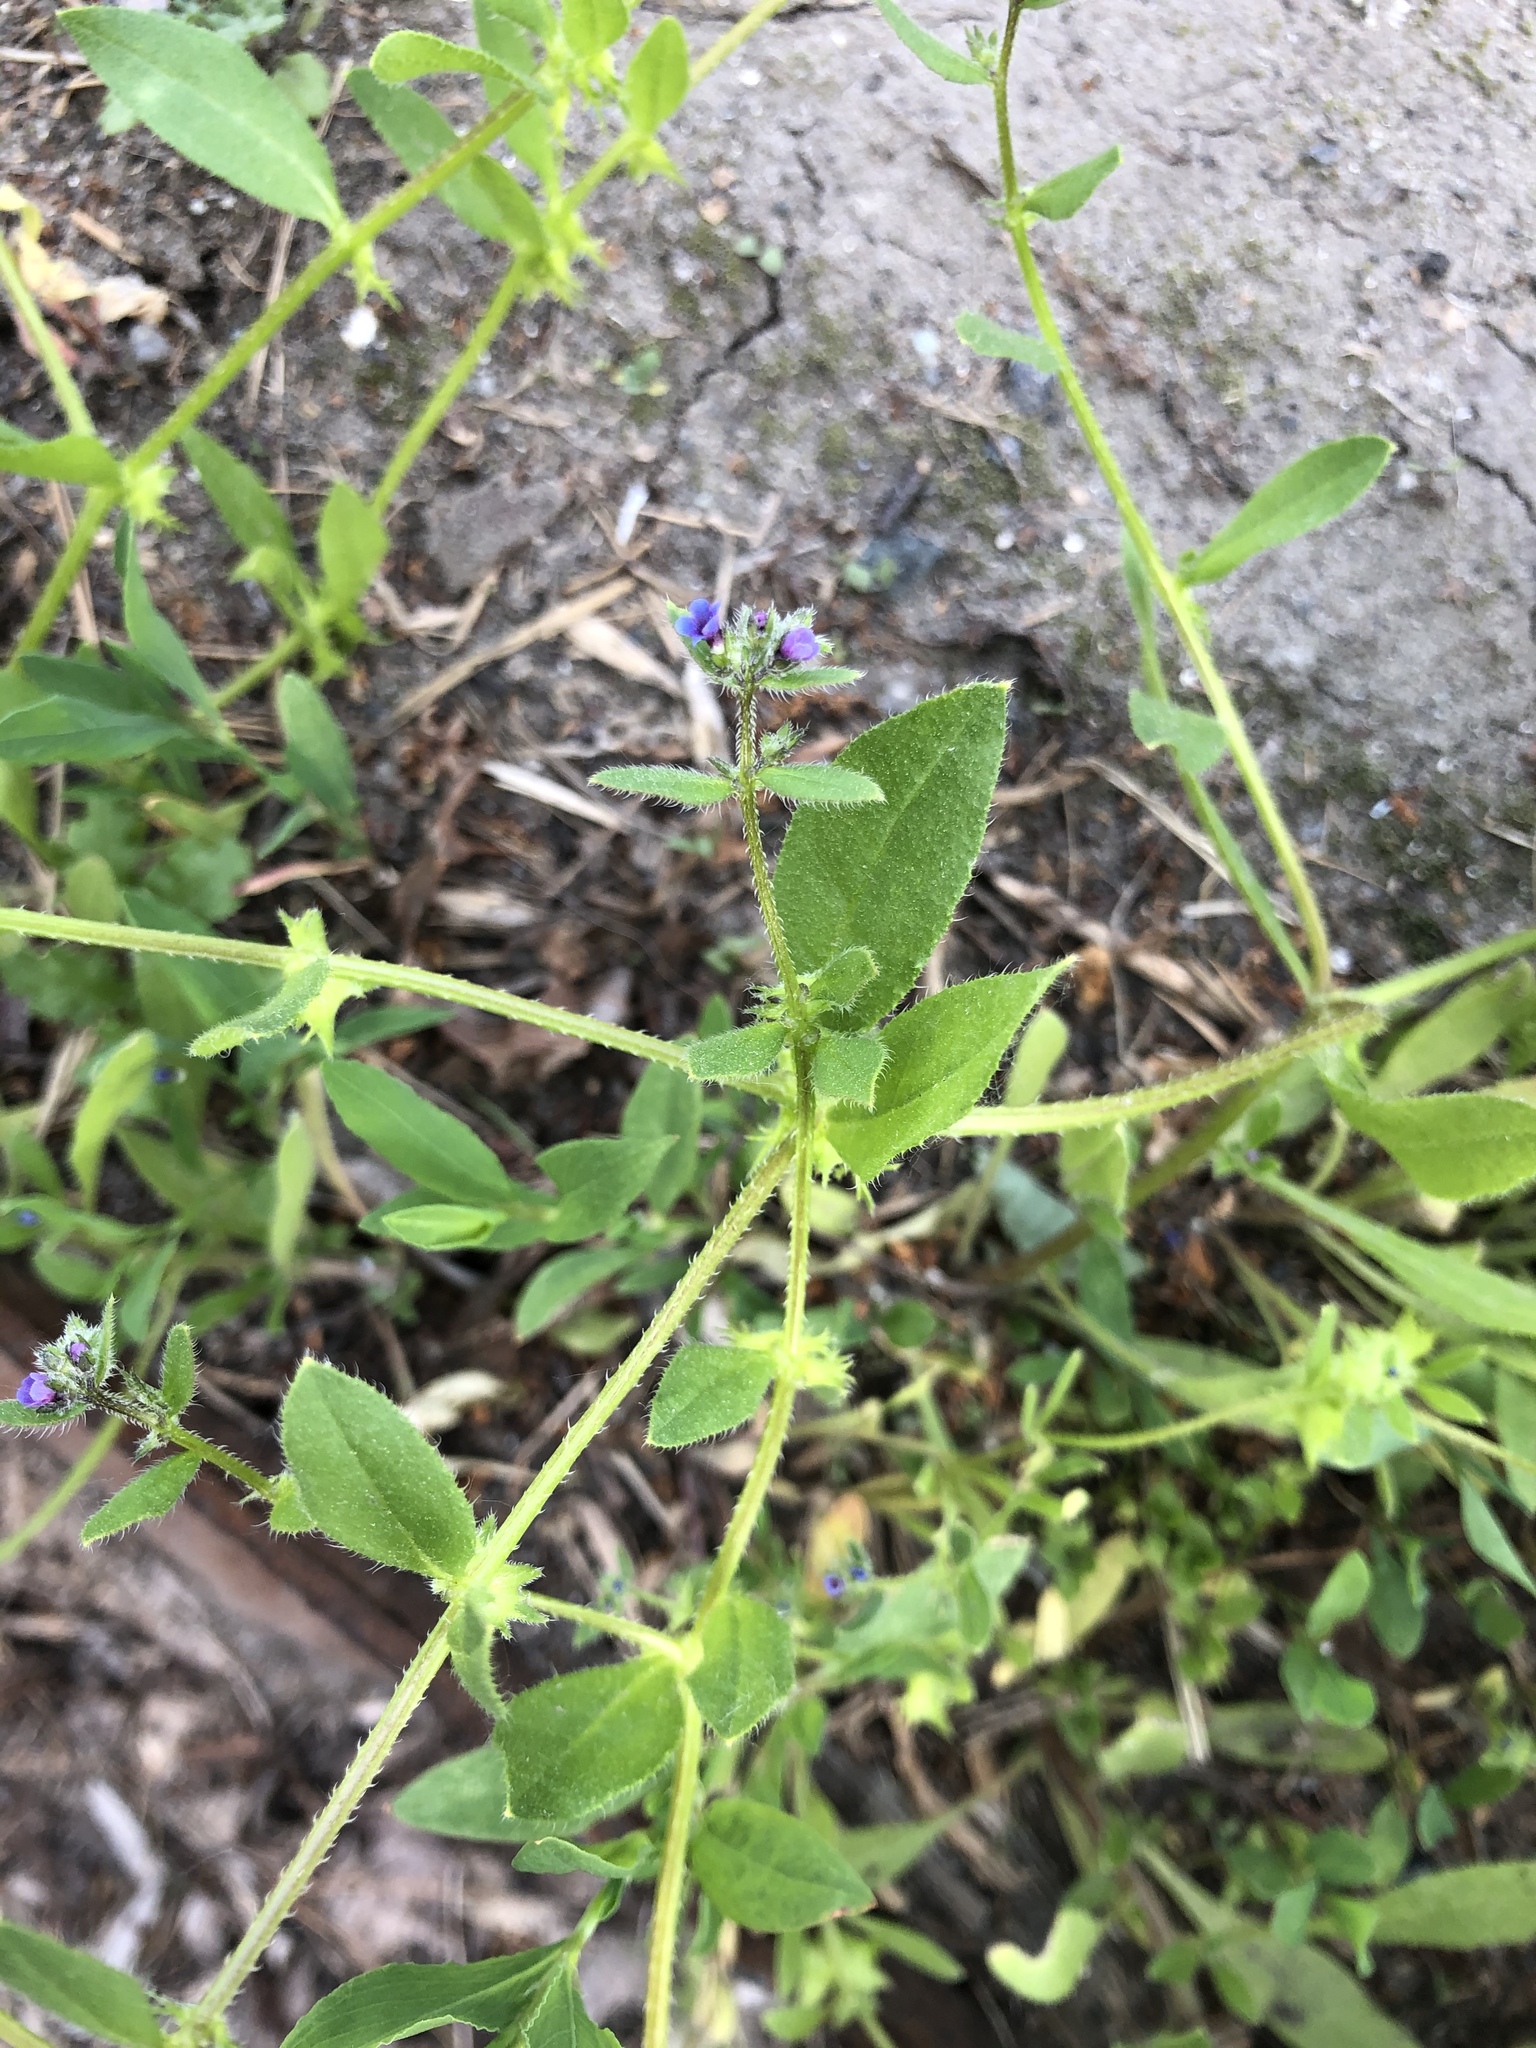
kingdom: Plantae
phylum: Tracheophyta
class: Magnoliopsida
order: Boraginales
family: Boraginaceae
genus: Asperugo
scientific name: Asperugo procumbens
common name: Madwort
